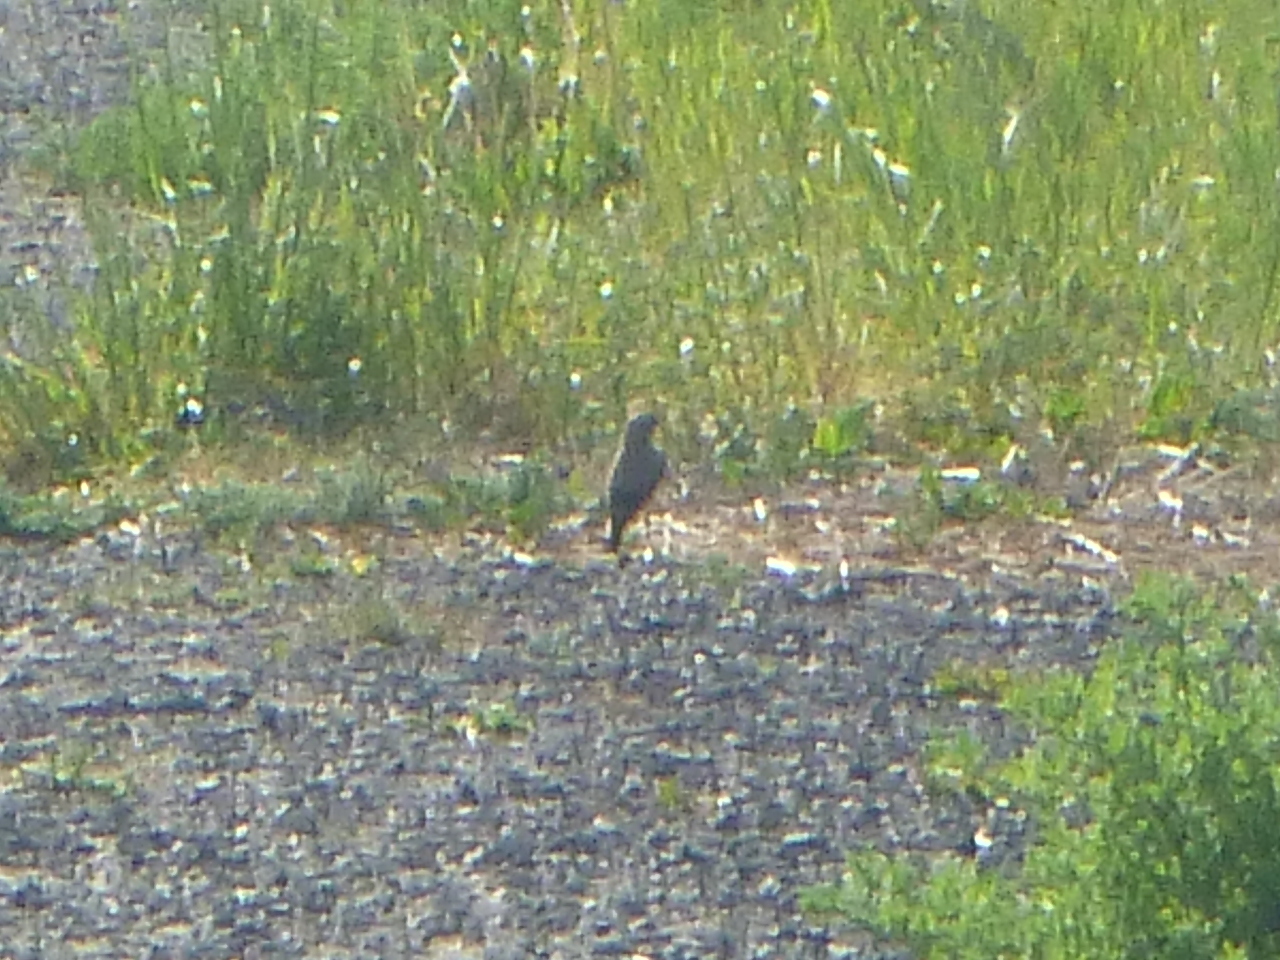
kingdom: Animalia
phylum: Chordata
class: Aves
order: Passeriformes
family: Muscicapidae
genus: Oenanthe
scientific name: Oenanthe oenanthe
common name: Northern wheatear
